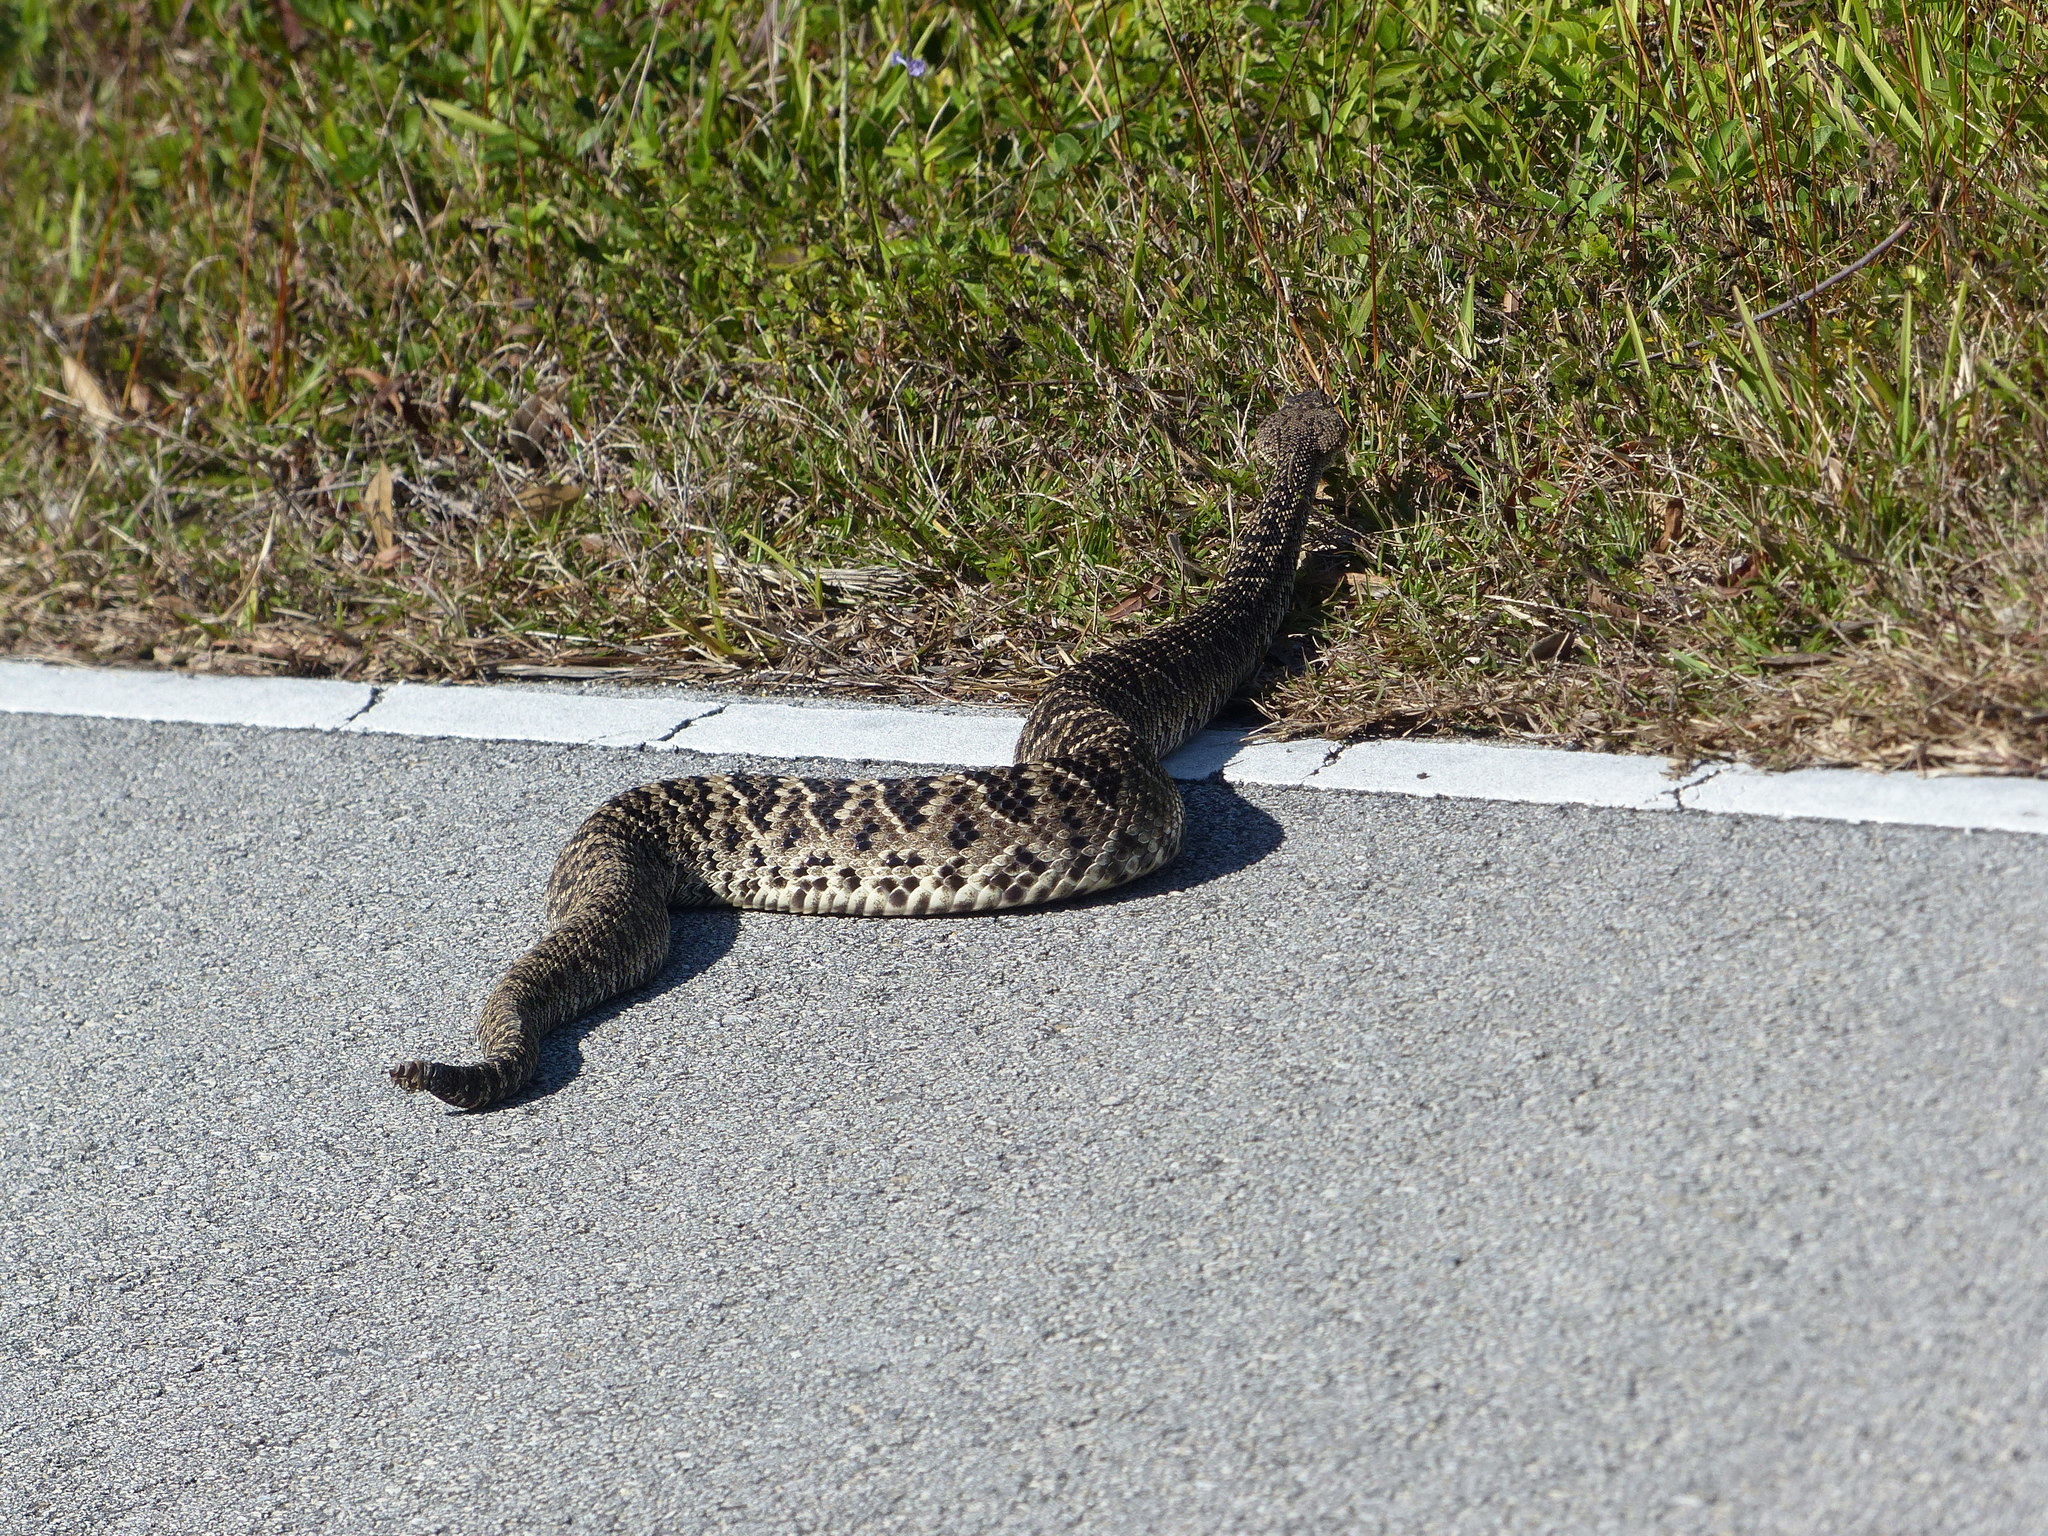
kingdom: Animalia
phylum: Chordata
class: Squamata
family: Viperidae
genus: Crotalus
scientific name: Crotalus adamanteus
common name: Eastern diamondback rattlesnake
